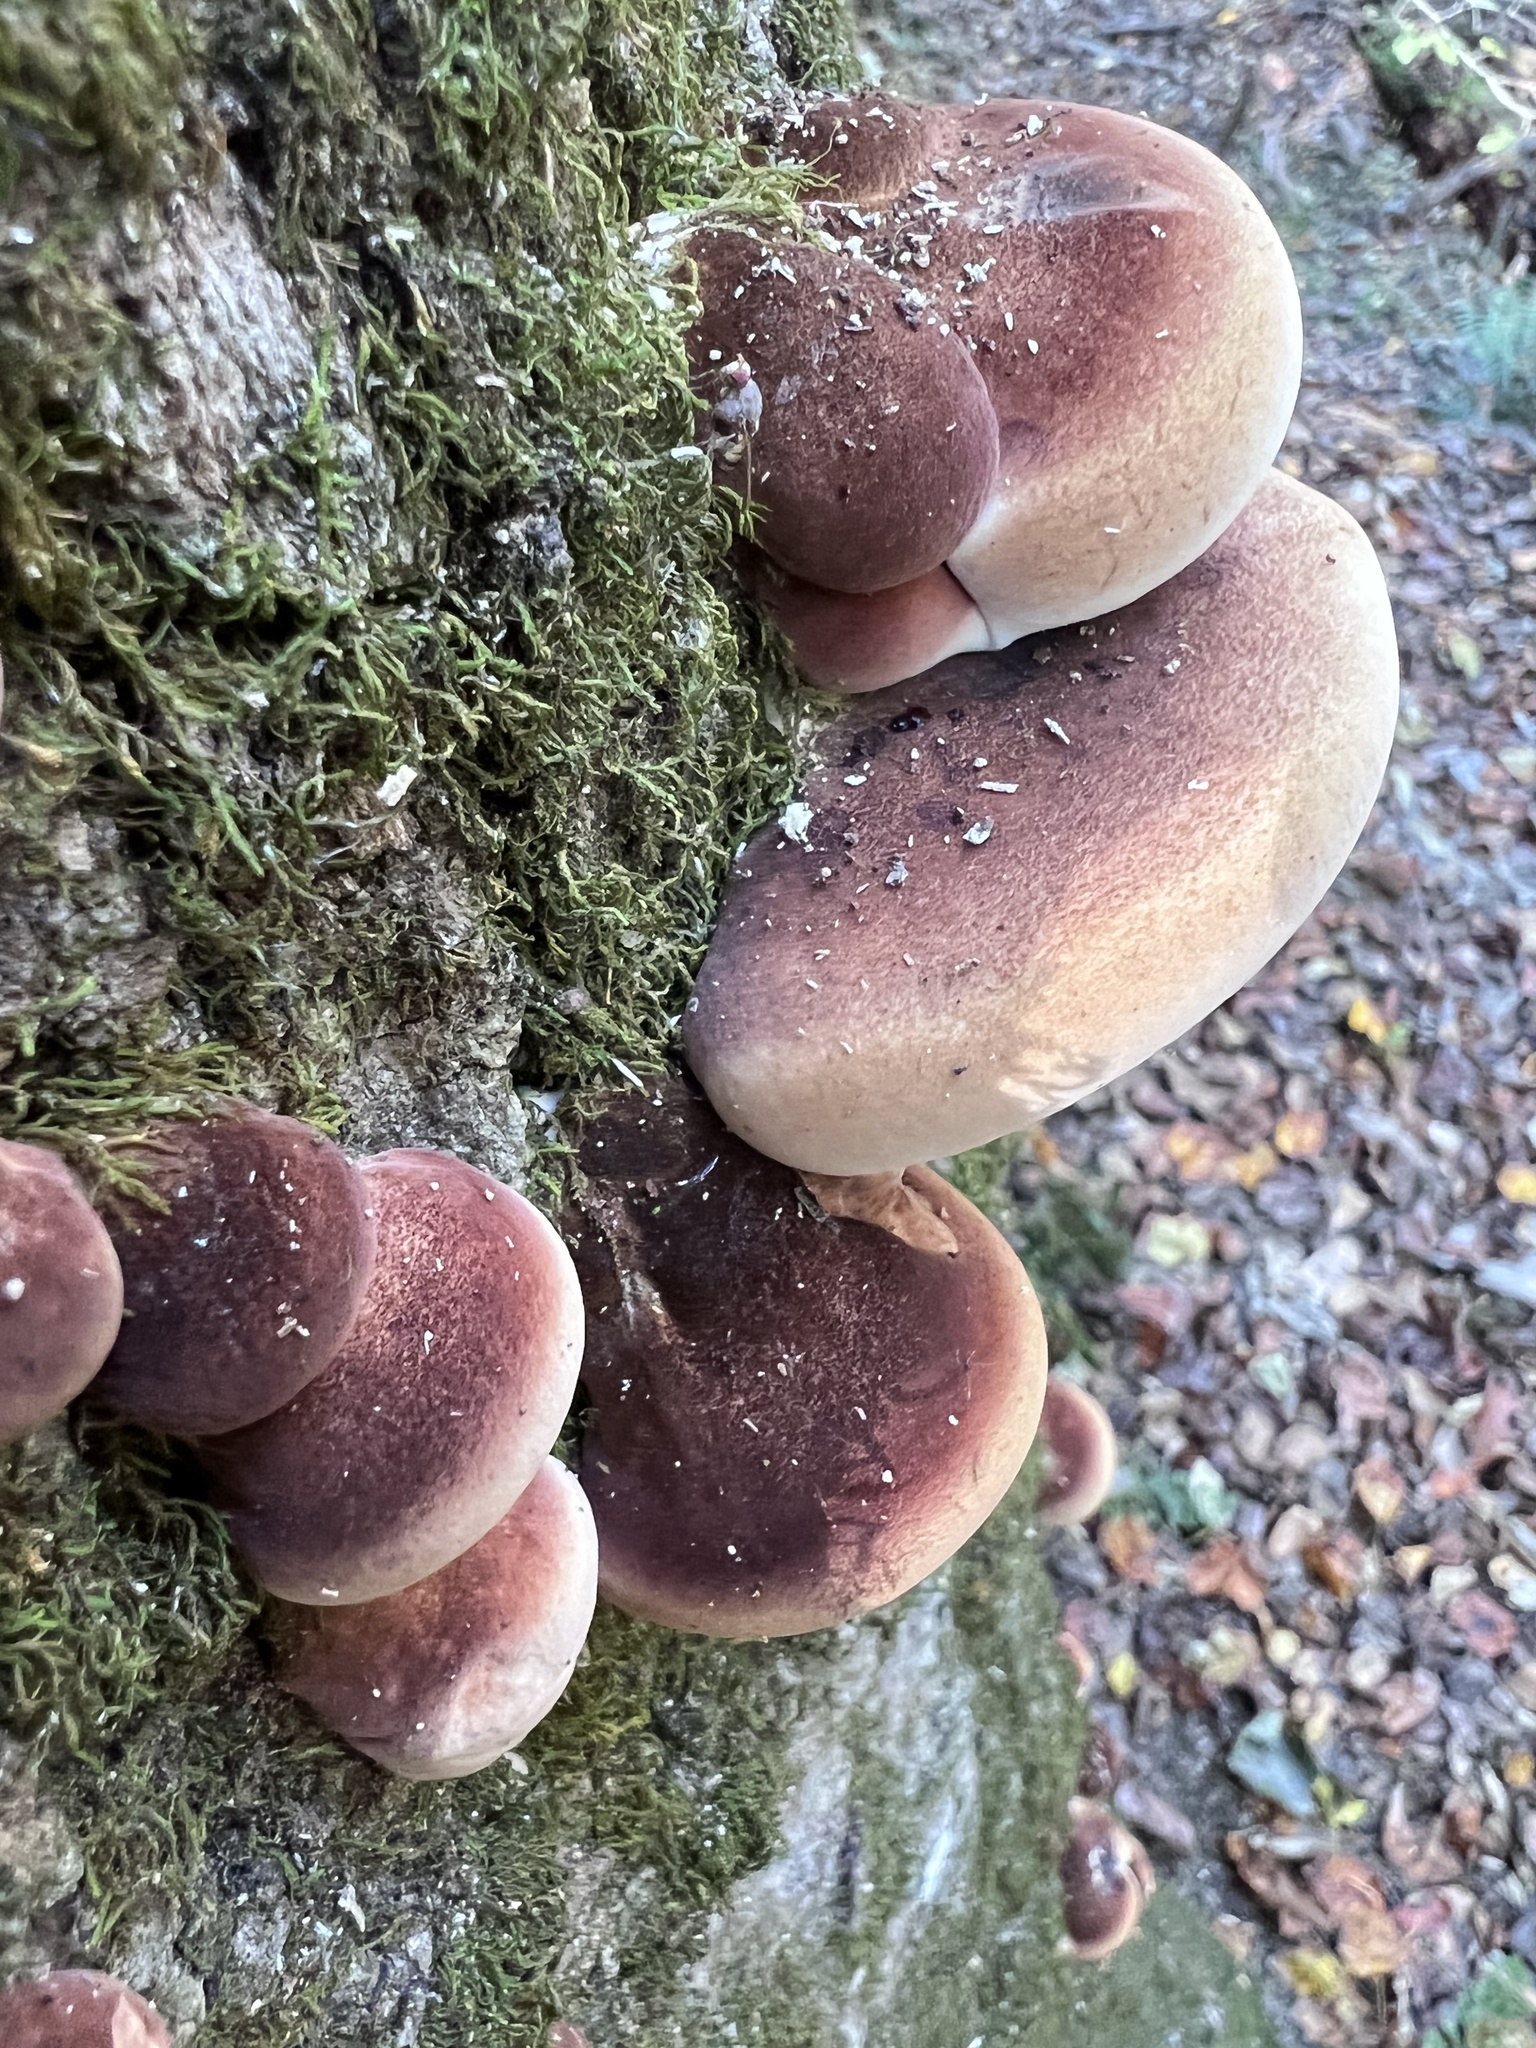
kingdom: Fungi
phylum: Basidiomycota
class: Agaricomycetes
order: Polyporales
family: Ischnodermataceae
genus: Ischnoderma
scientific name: Ischnoderma resinosum
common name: Resinous polypore
